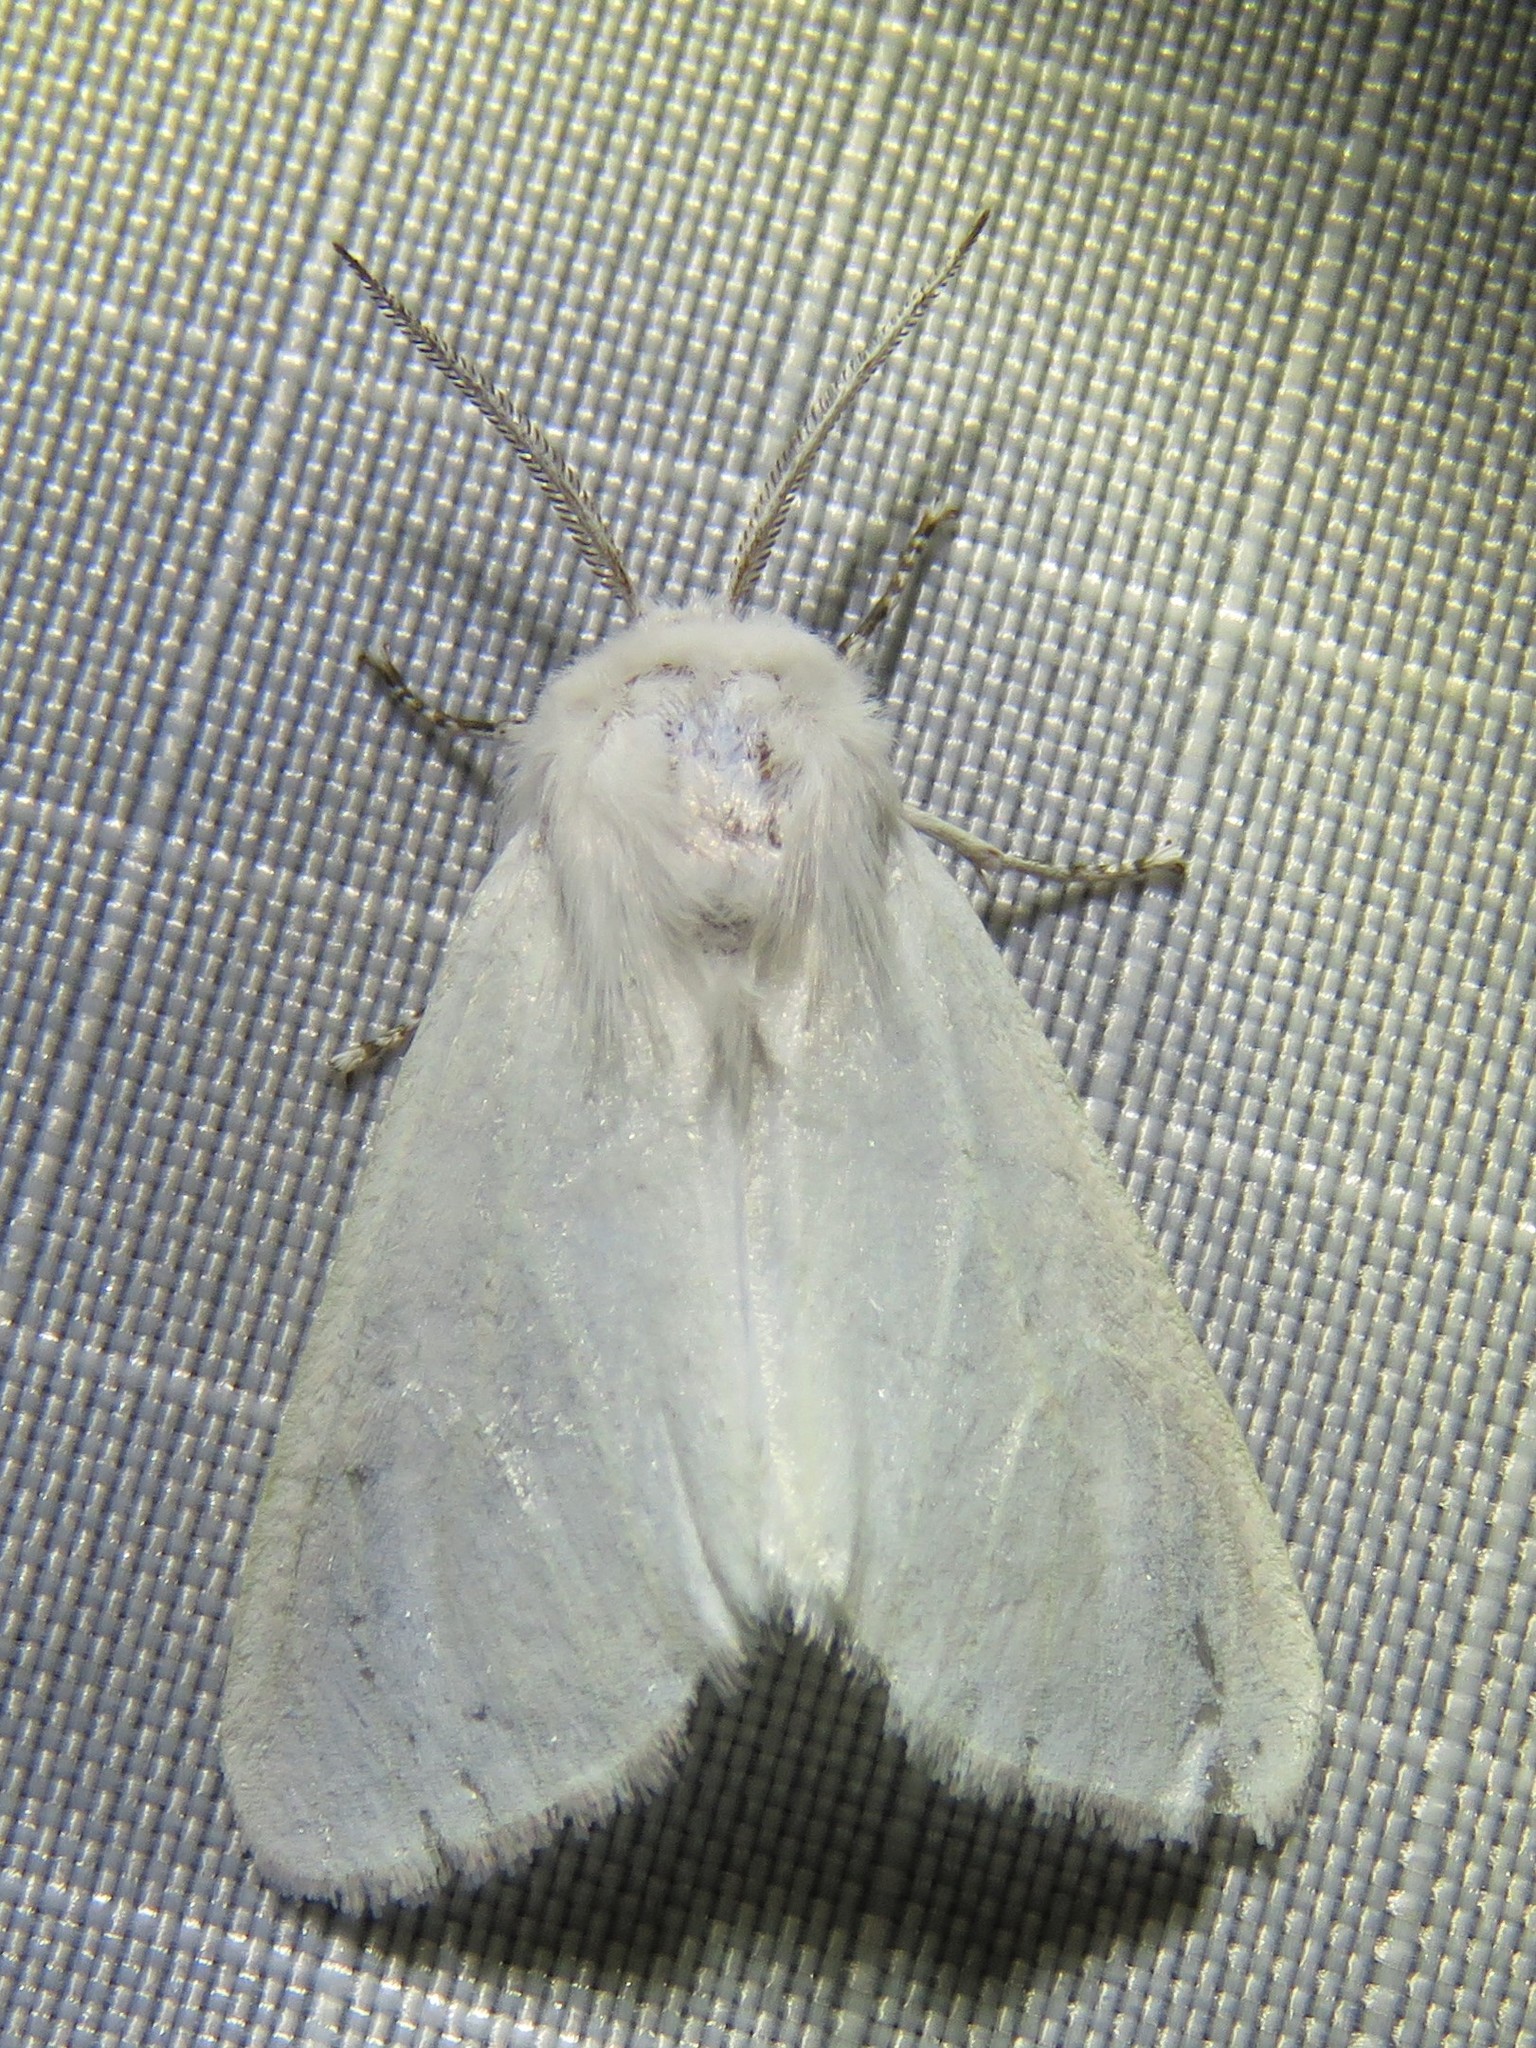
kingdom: Animalia
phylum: Arthropoda
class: Insecta
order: Lepidoptera
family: Erebidae
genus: Hyphantria
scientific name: Hyphantria cunea
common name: American white moth
